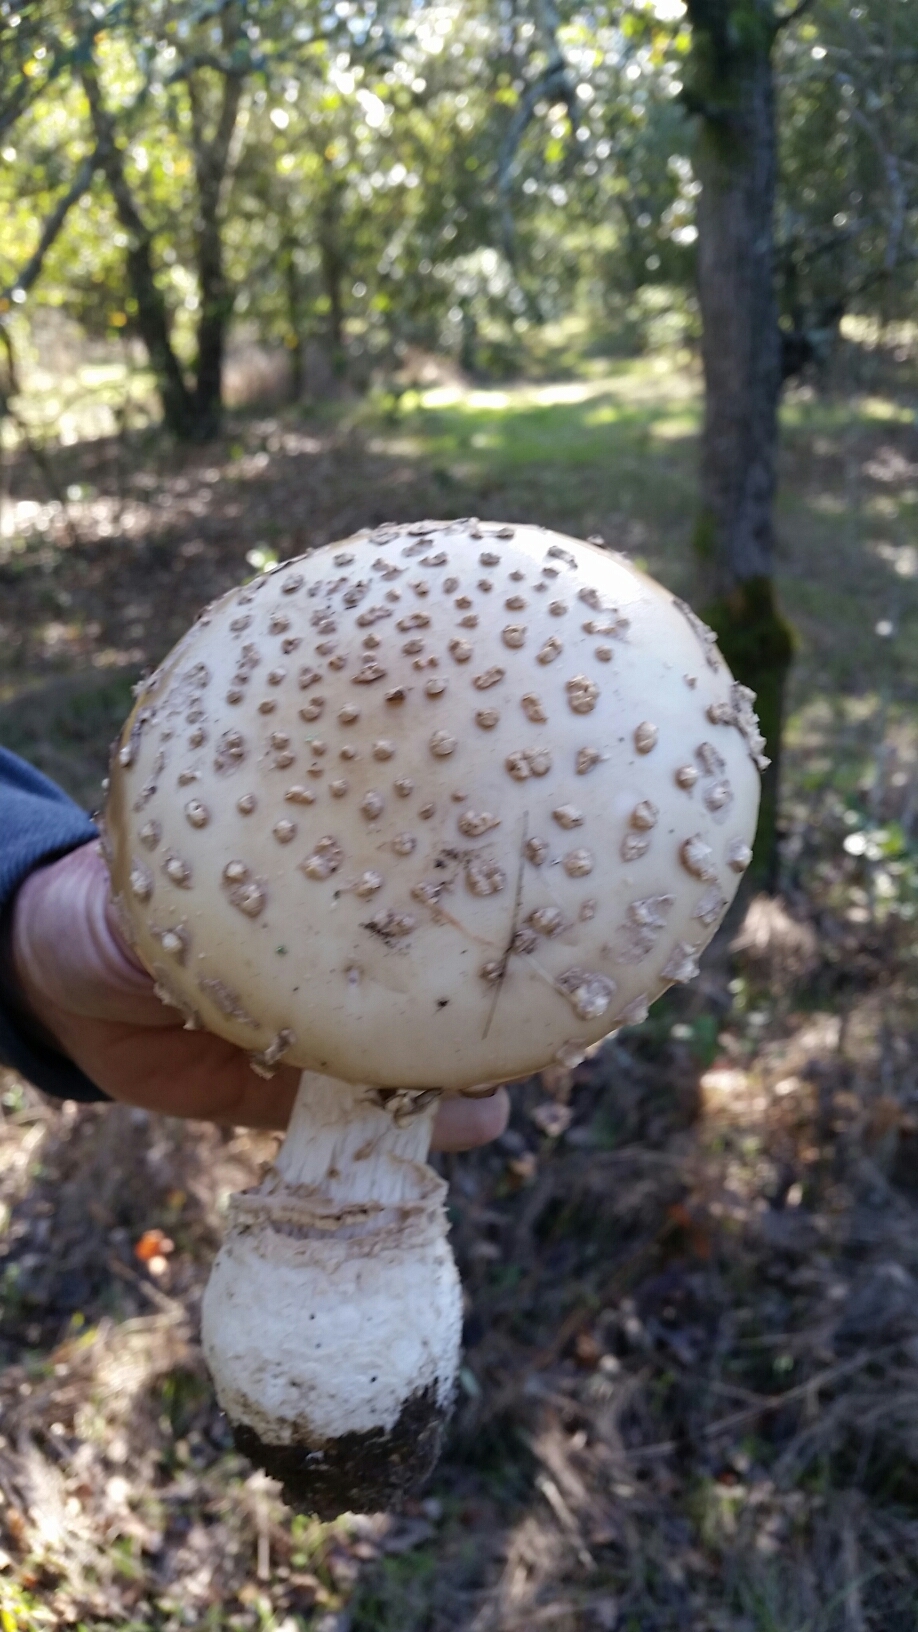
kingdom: Fungi
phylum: Basidiomycota
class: Agaricomycetes
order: Agaricales
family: Amanitaceae
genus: Amanita
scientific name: Amanita muscaria
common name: Fly agaric
